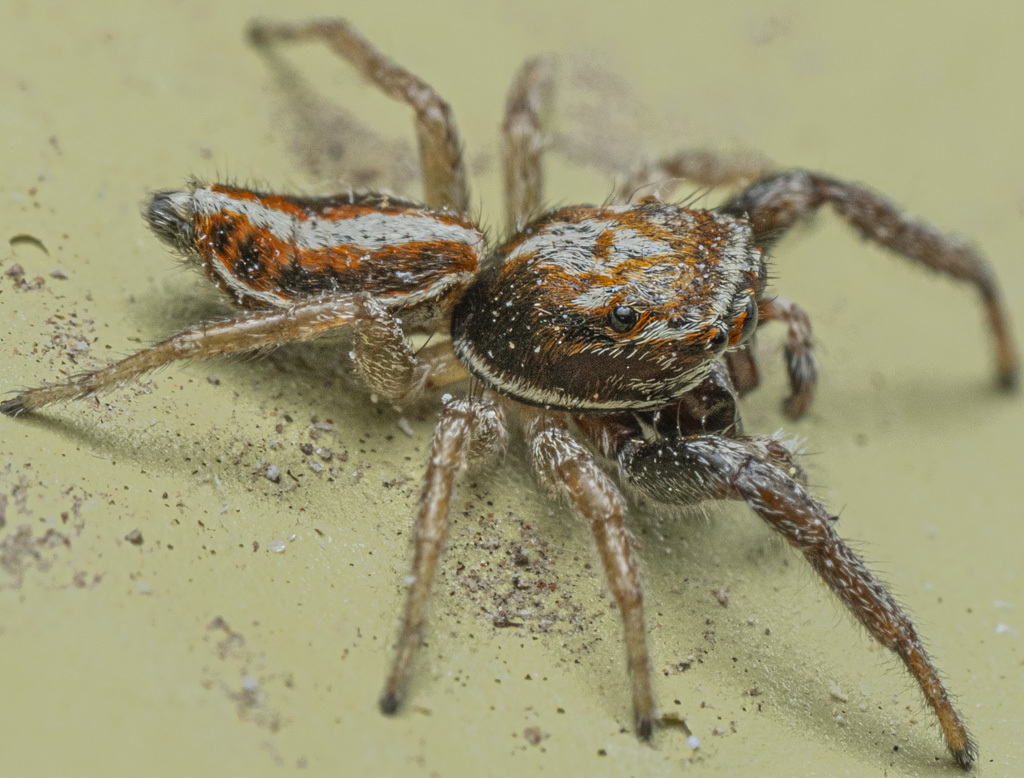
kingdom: Animalia
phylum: Arthropoda
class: Arachnida
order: Araneae
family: Salticidae
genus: Icius
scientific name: Icius subinermis
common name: Jumping spider
